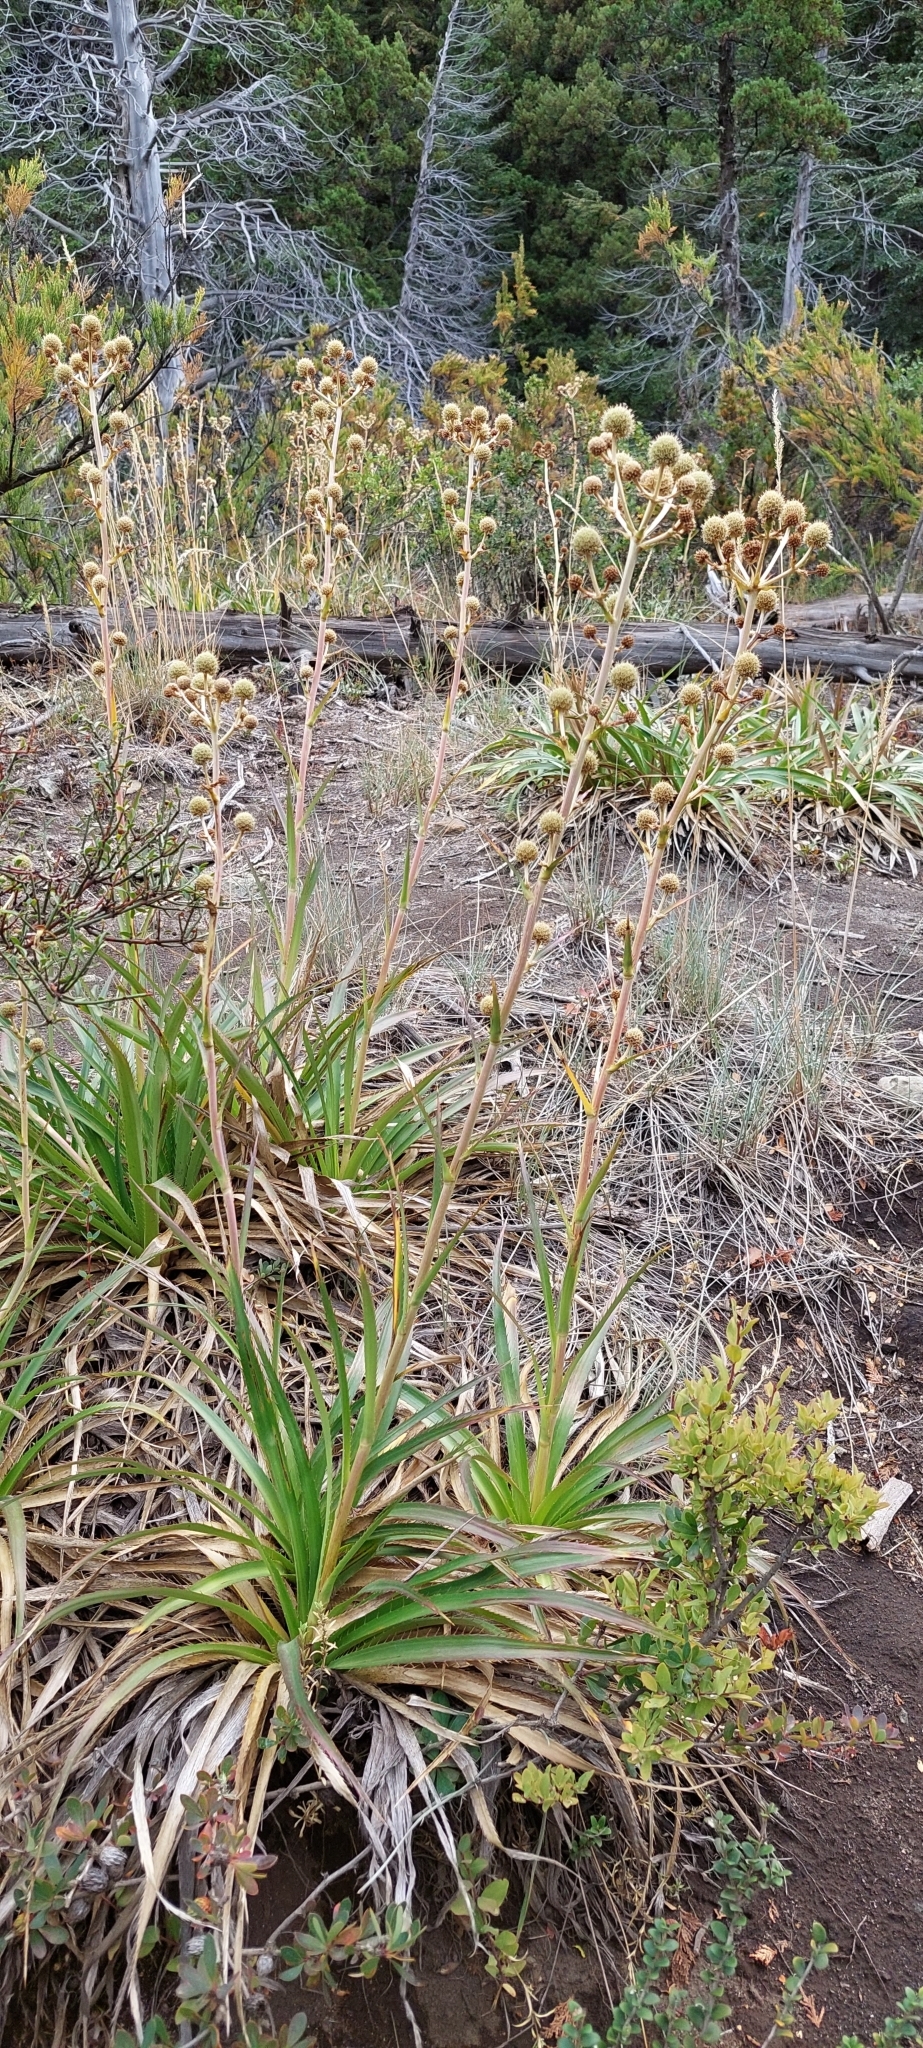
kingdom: Plantae
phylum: Tracheophyta
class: Magnoliopsida
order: Apiales
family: Apiaceae
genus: Eryngium
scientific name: Eryngium humboldtii
